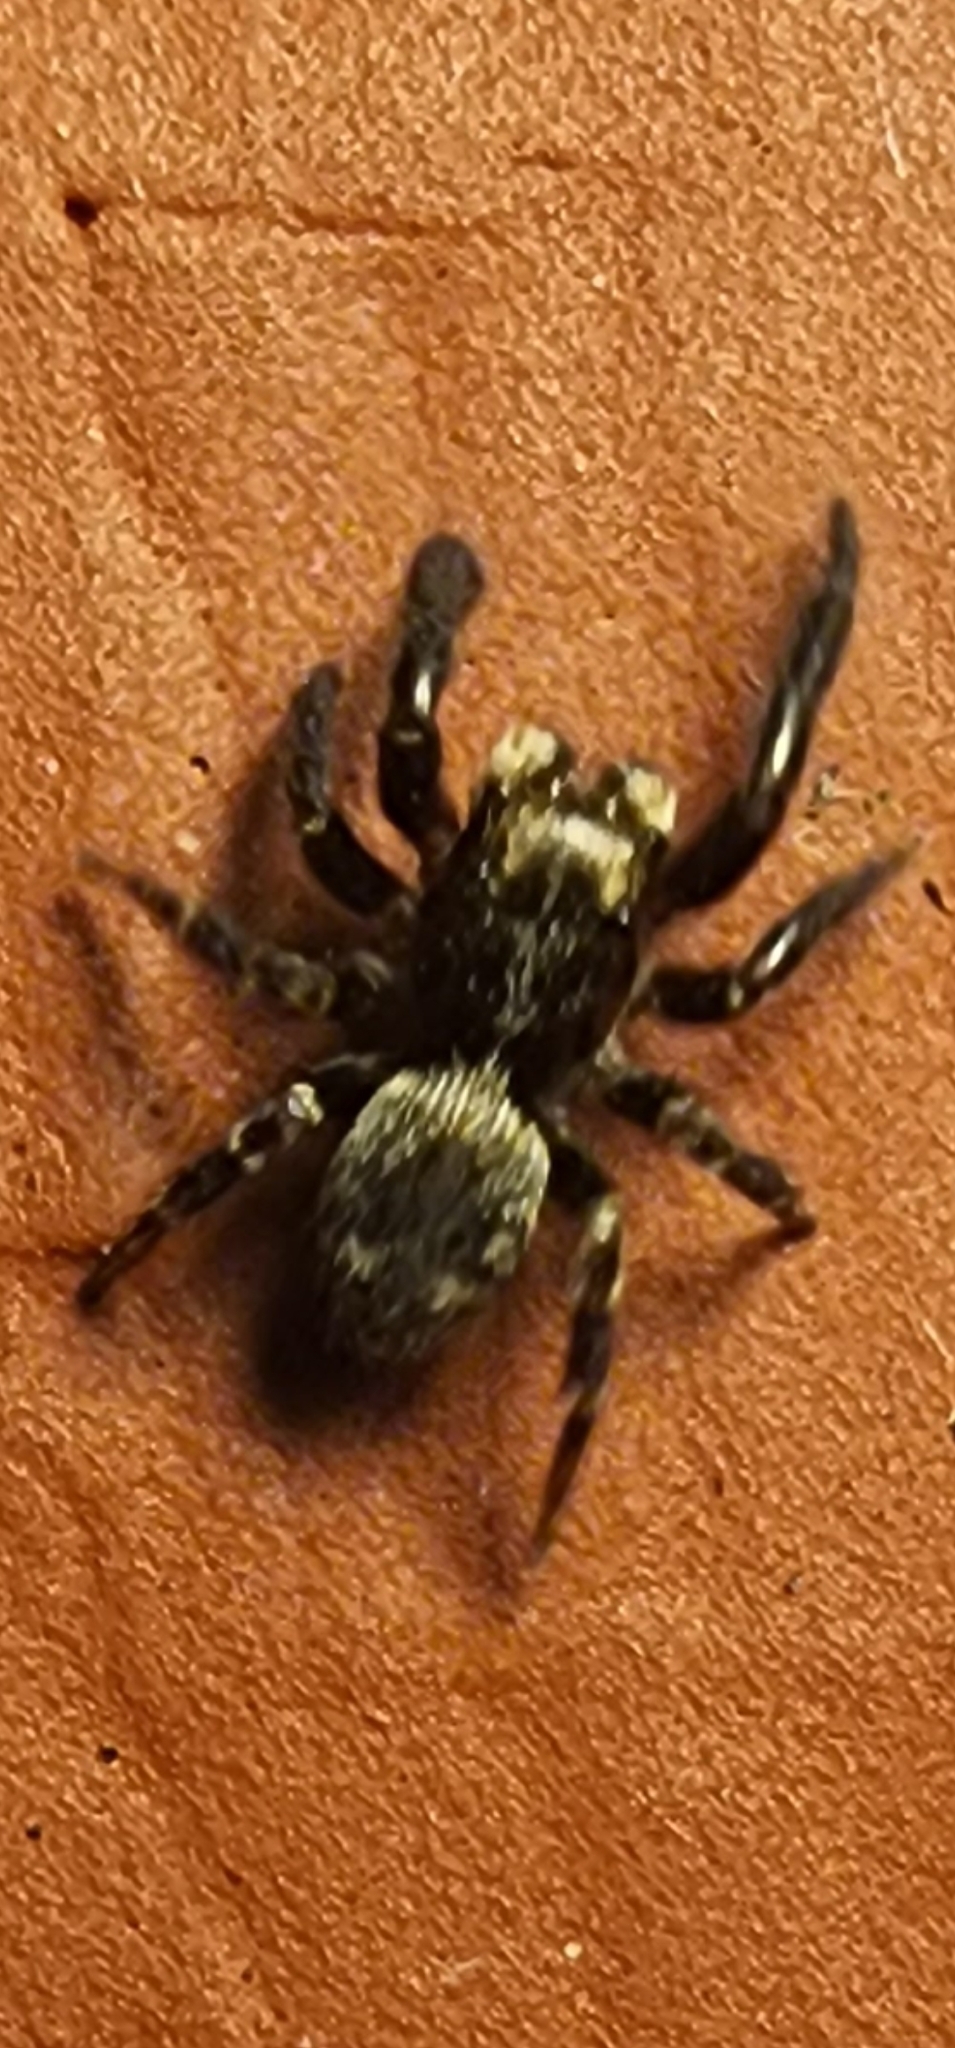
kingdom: Animalia
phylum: Arthropoda
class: Arachnida
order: Araneae
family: Salticidae
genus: Pseudeuophrys
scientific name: Pseudeuophrys erratica
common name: Jumping spider
